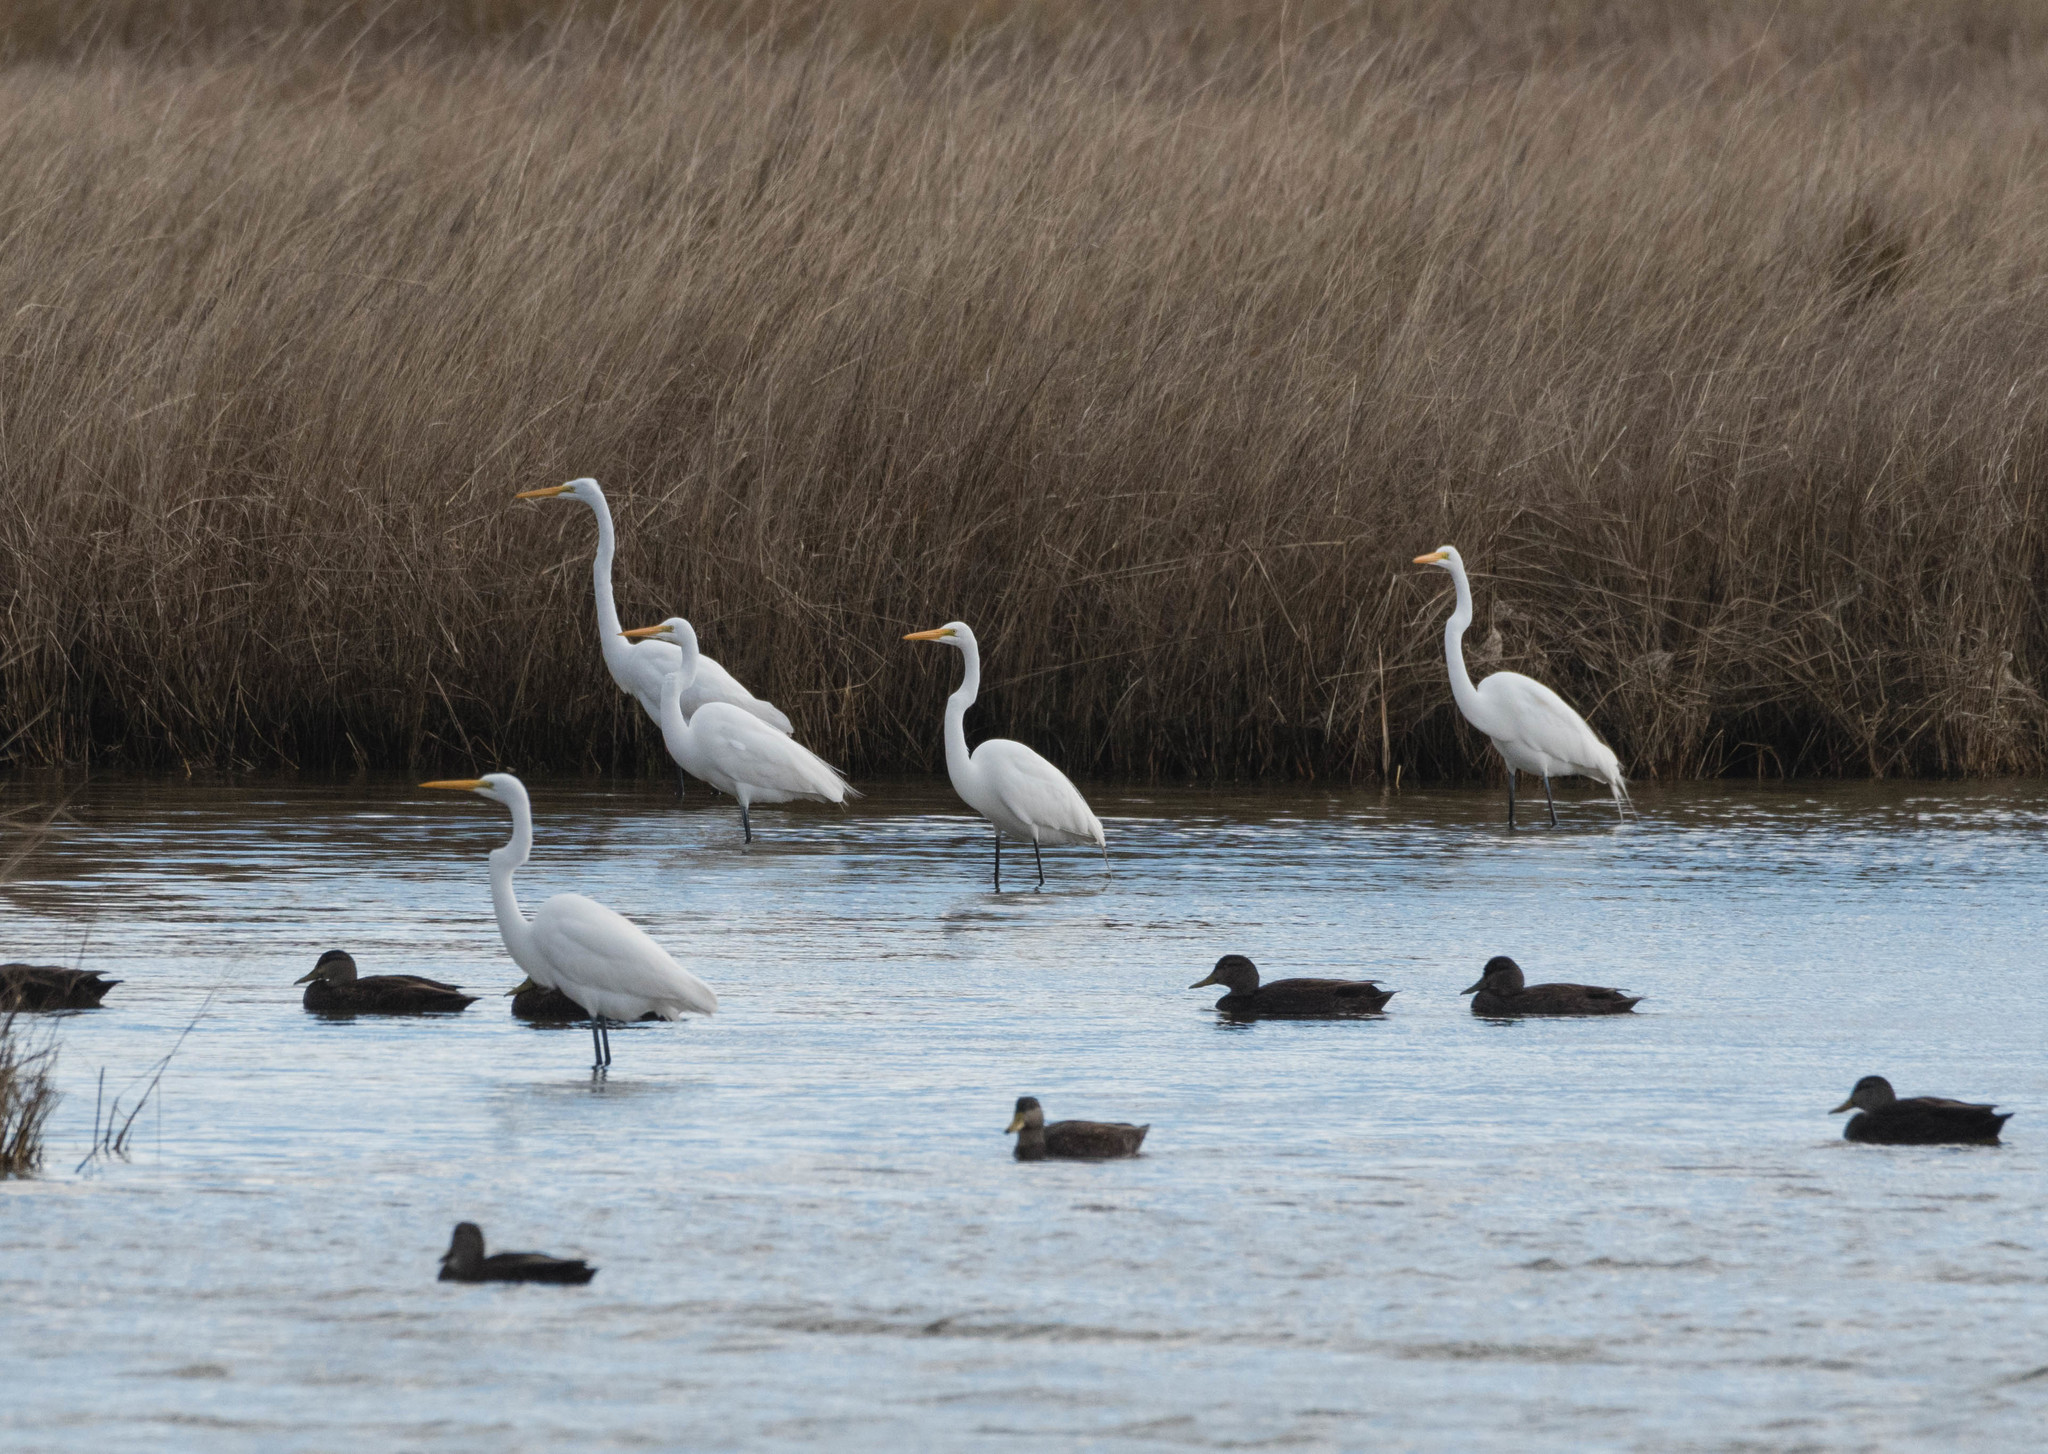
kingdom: Animalia
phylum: Chordata
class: Aves
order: Pelecaniformes
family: Ardeidae
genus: Ardea
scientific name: Ardea alba
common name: Great egret
